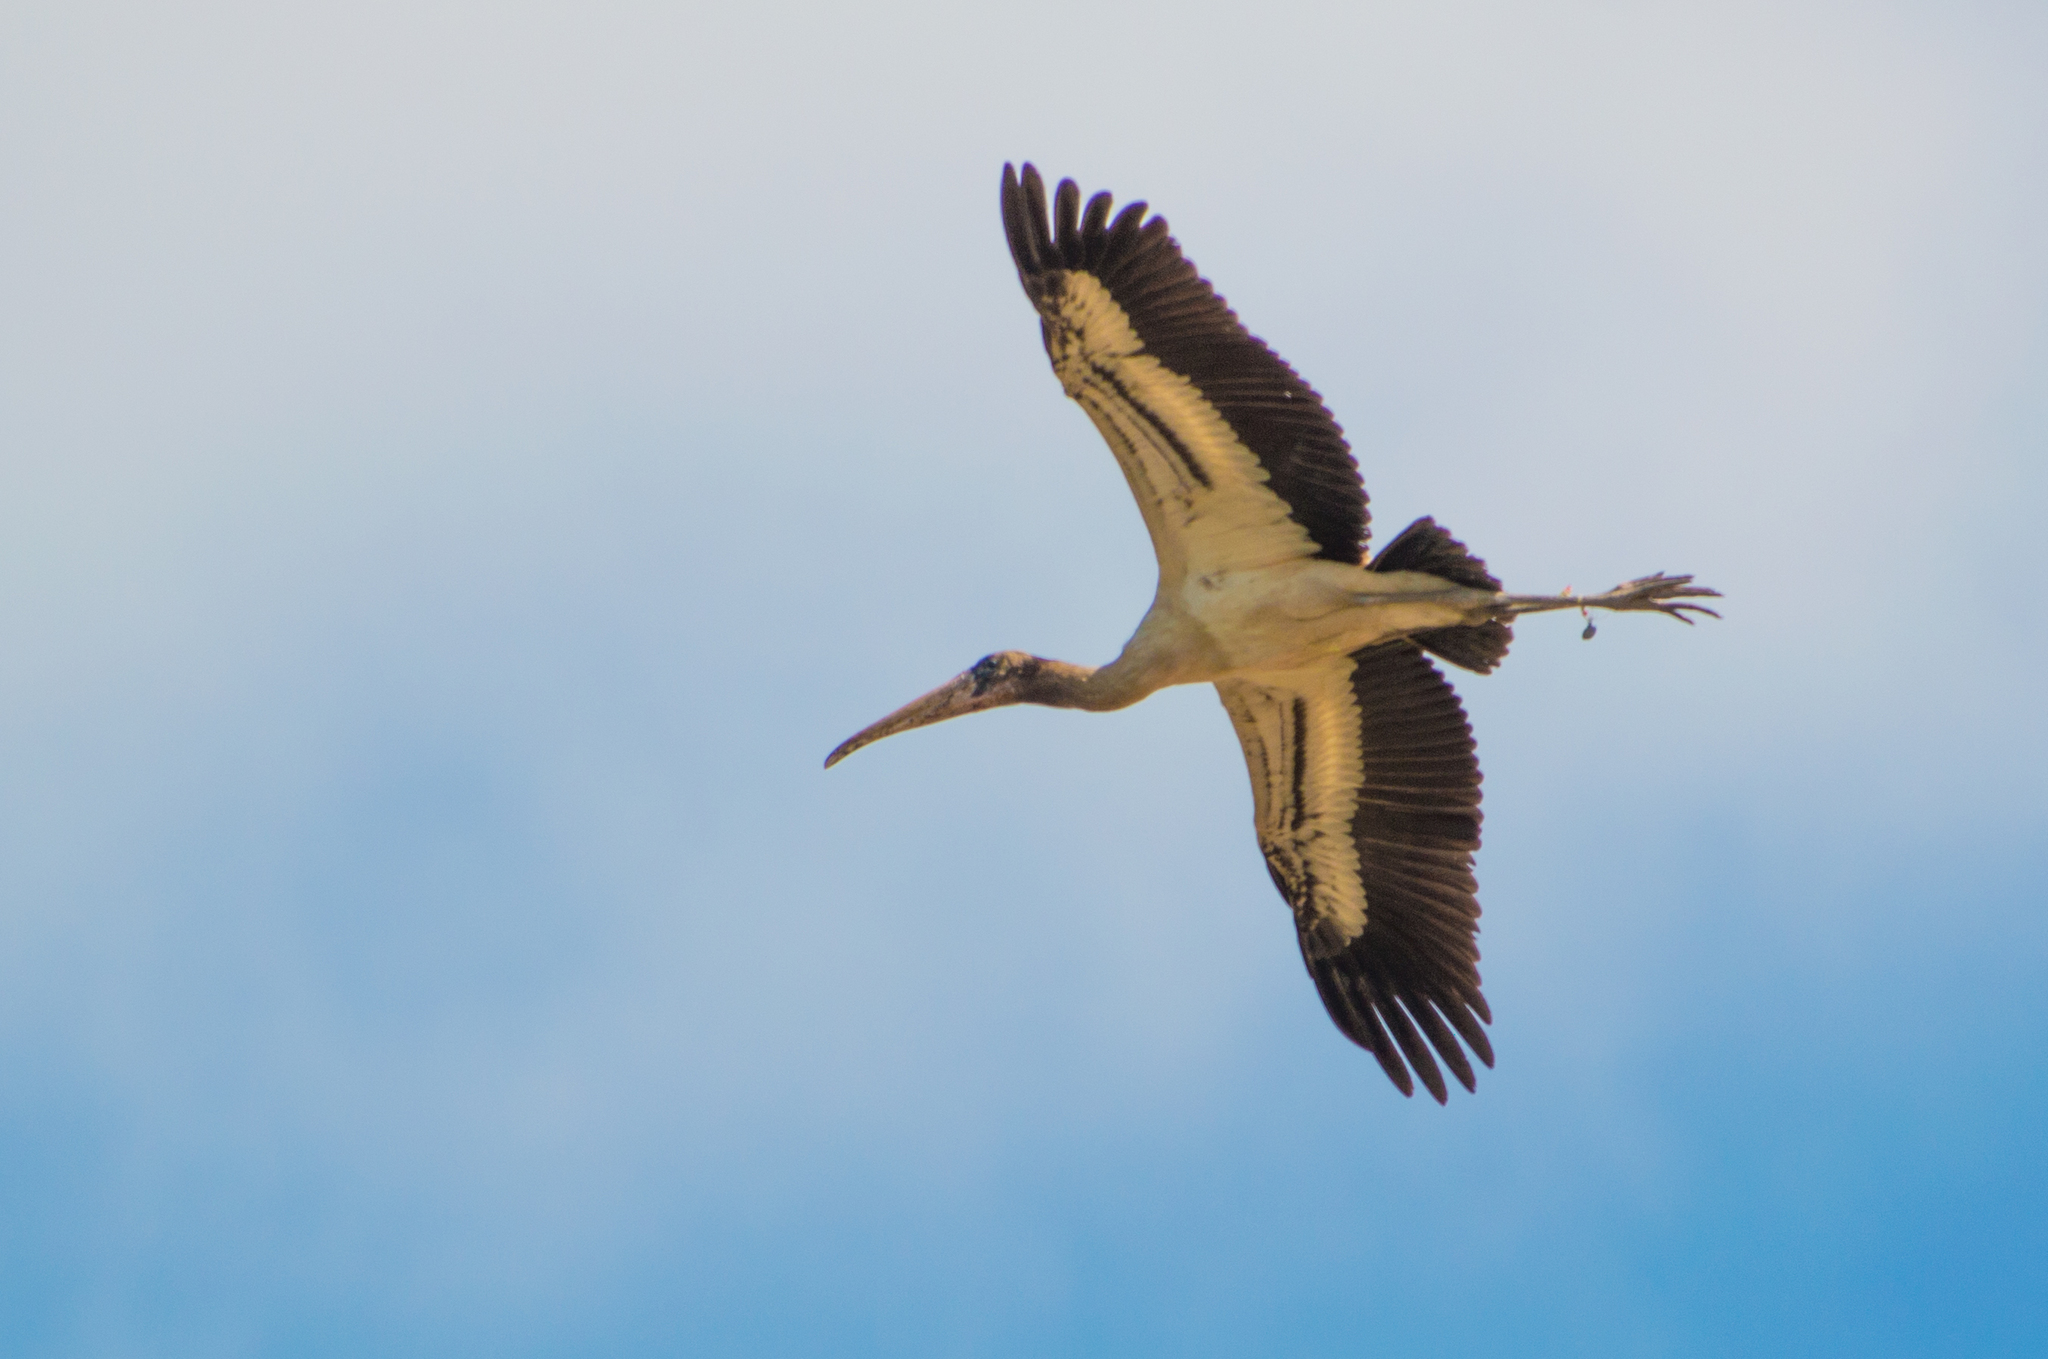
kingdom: Animalia
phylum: Chordata
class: Aves
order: Ciconiiformes
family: Ciconiidae
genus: Mycteria
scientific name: Mycteria americana
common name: Wood stork
